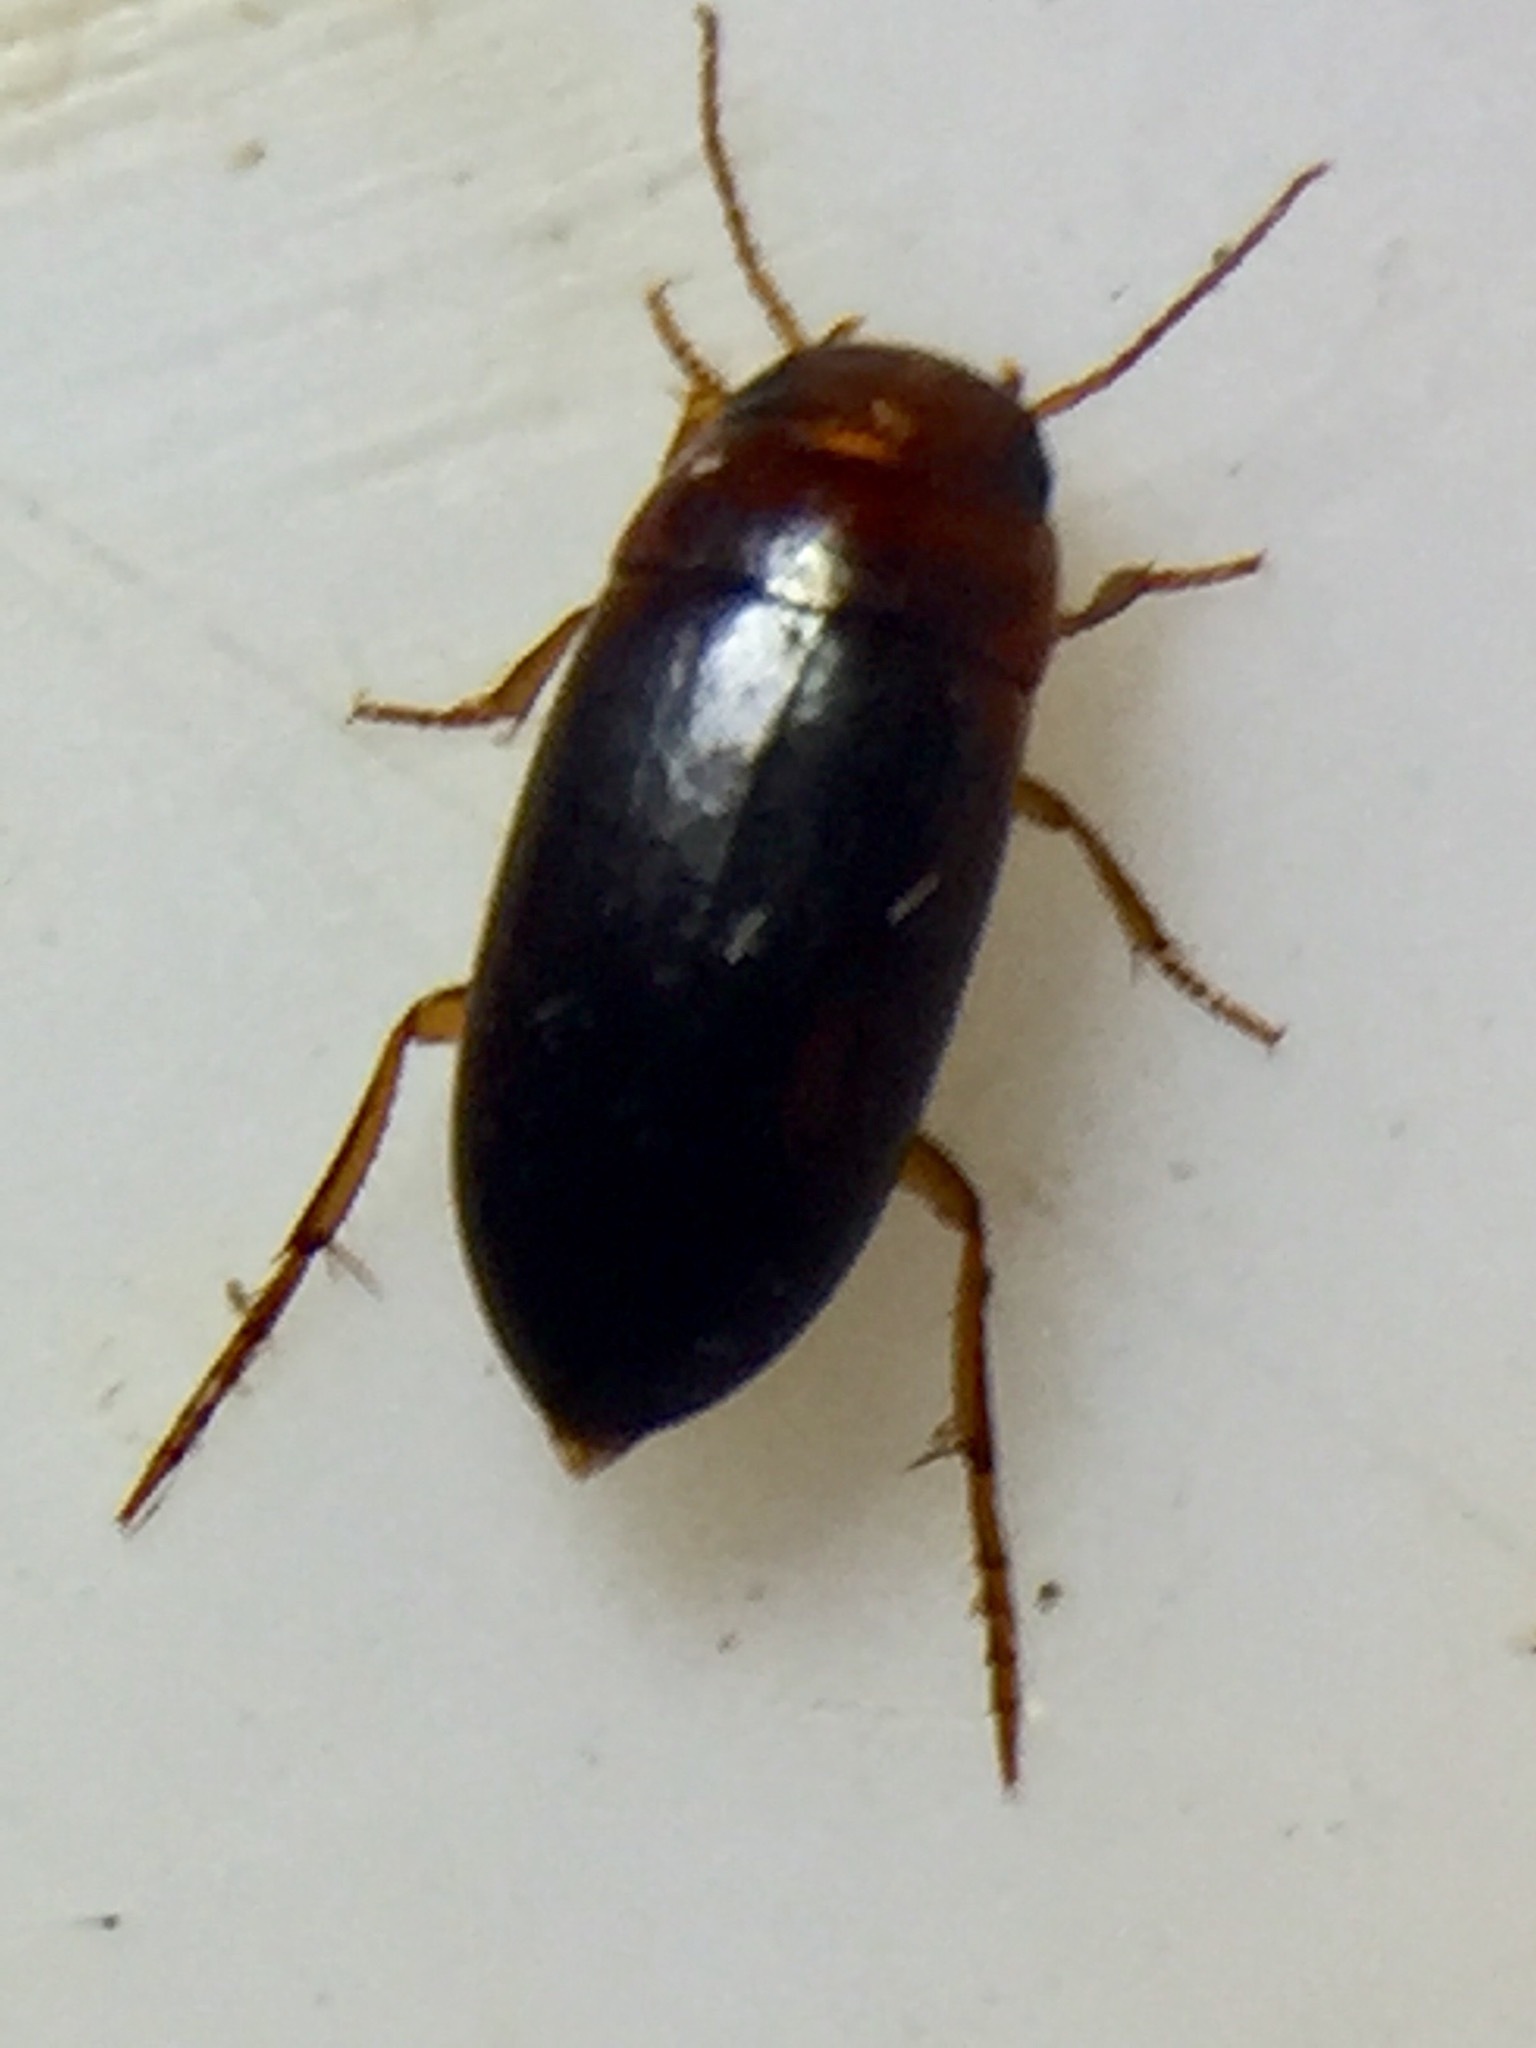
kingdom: Animalia
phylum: Arthropoda
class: Insecta
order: Coleoptera
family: Dytiscidae
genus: Exocelina
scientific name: Exocelina australis
